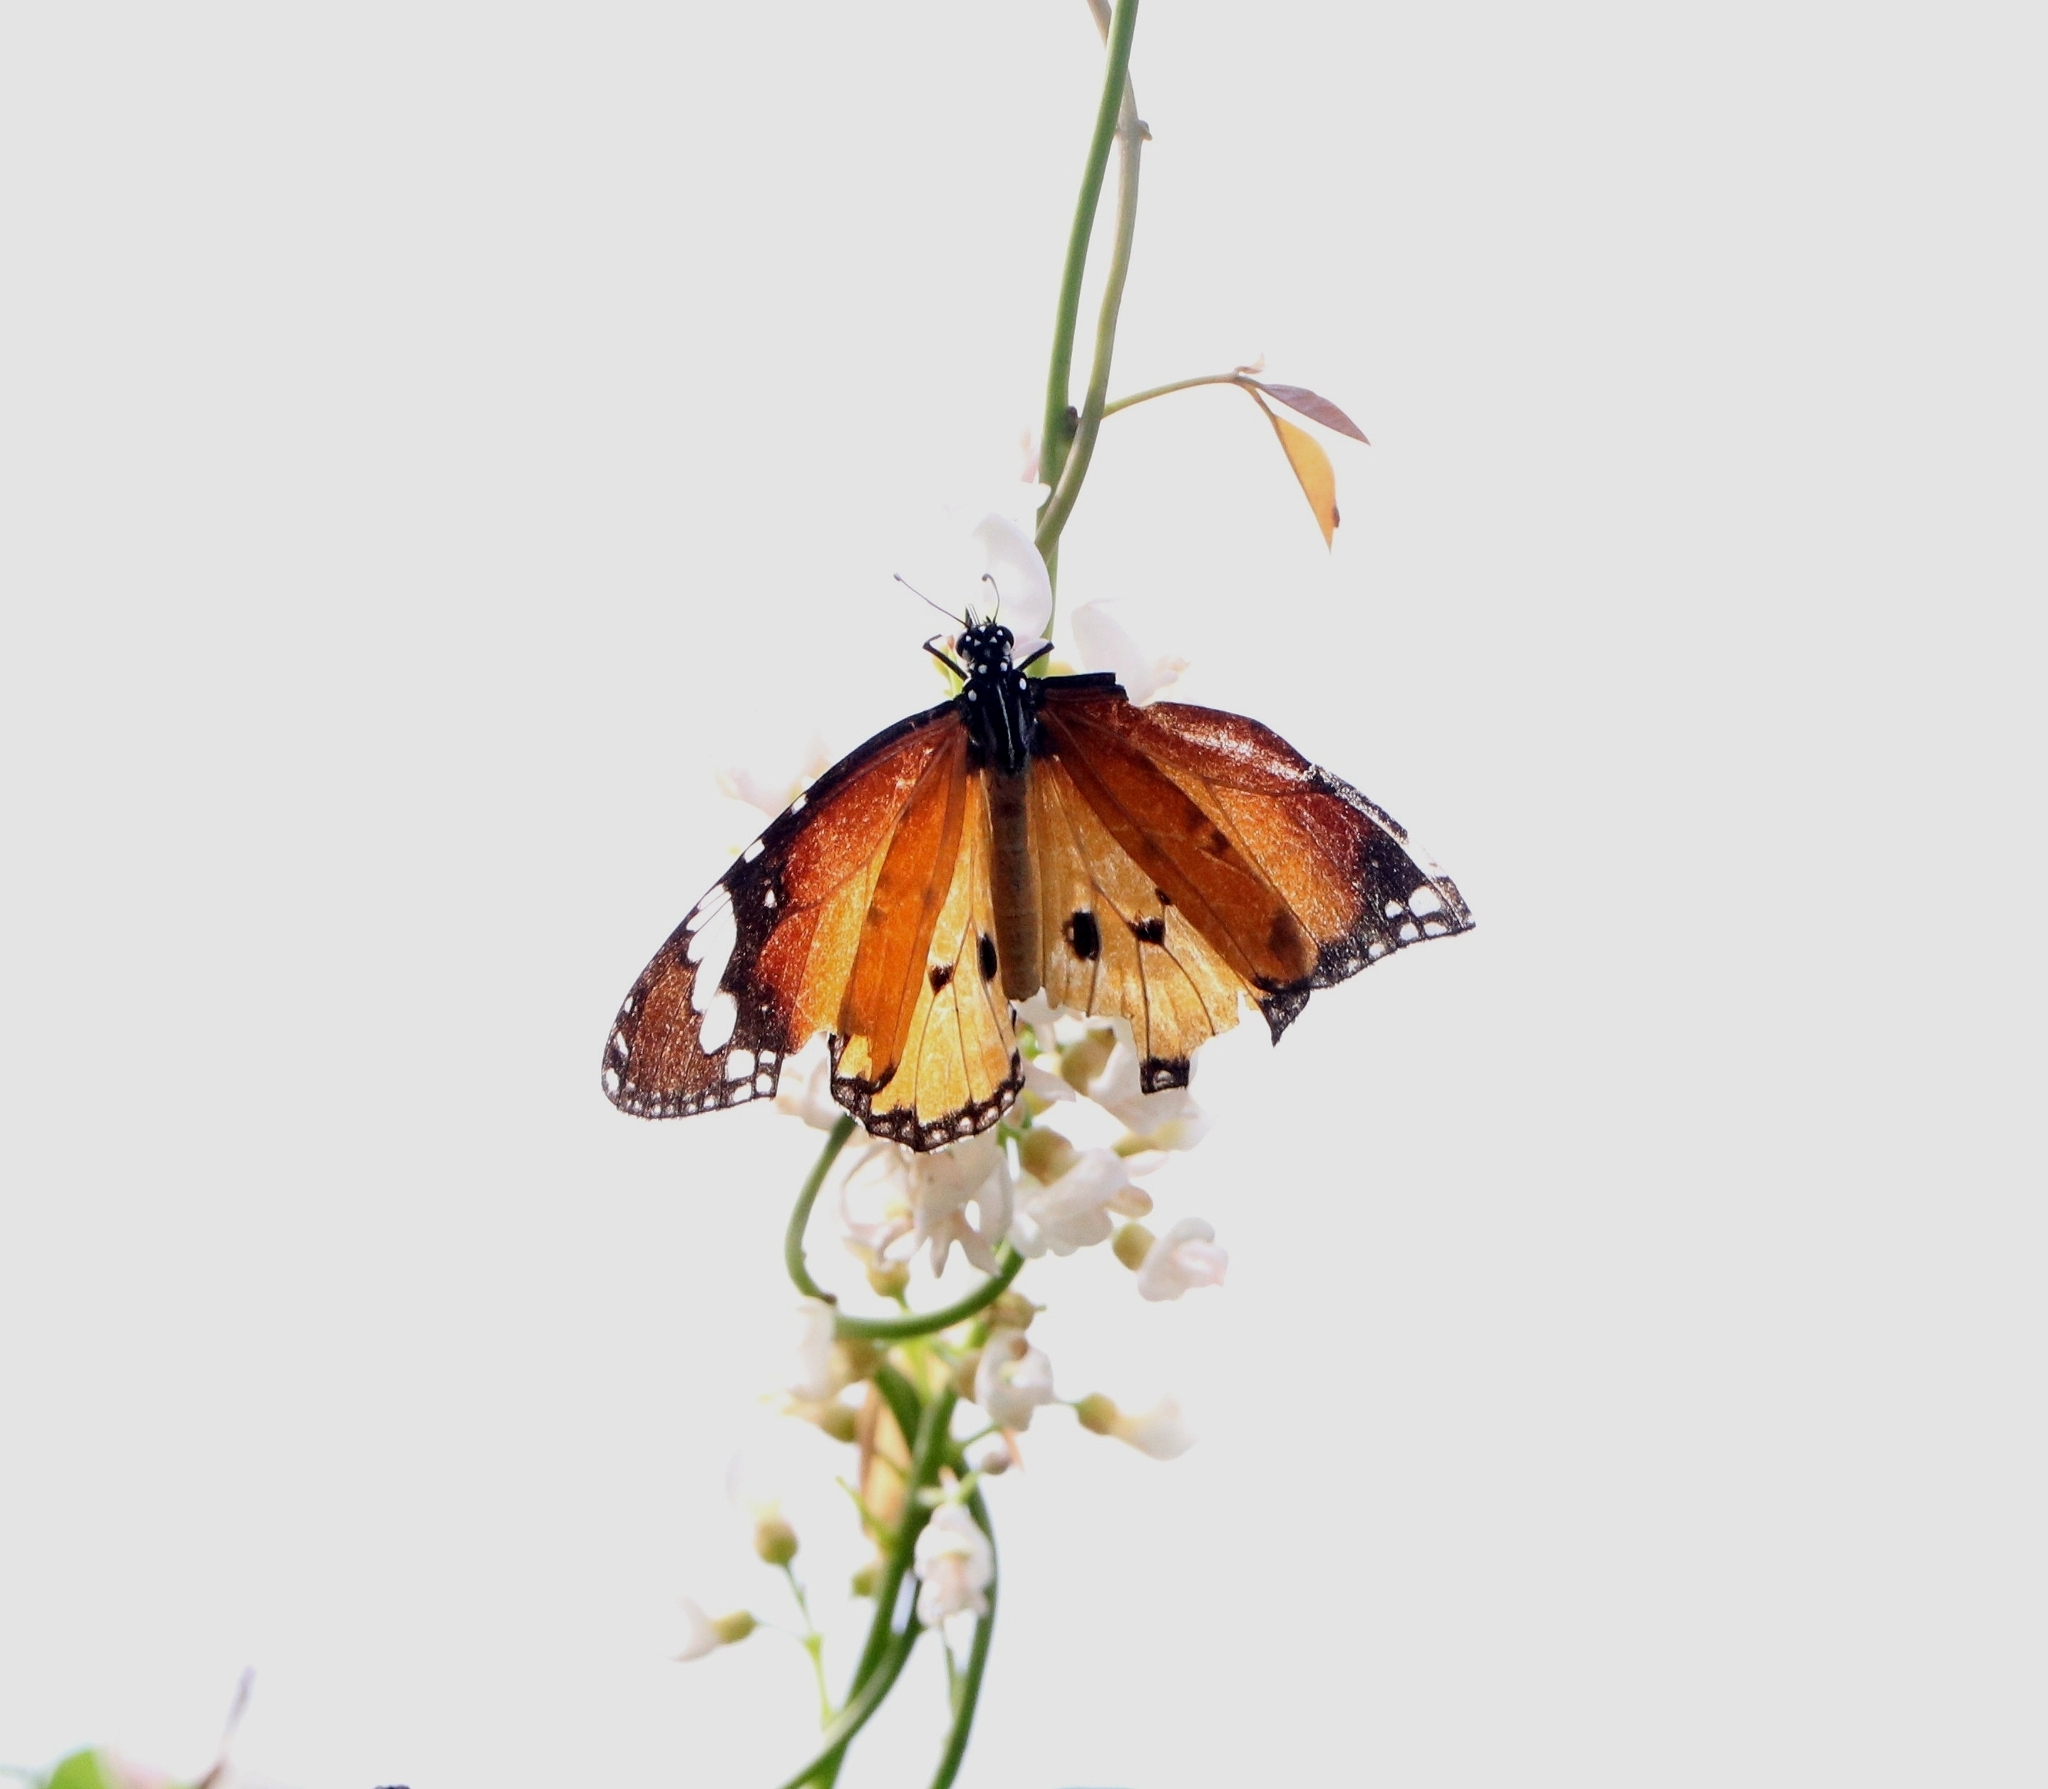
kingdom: Animalia
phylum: Arthropoda
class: Insecta
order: Lepidoptera
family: Nymphalidae
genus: Danaus
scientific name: Danaus chrysippus
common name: Plain tiger
